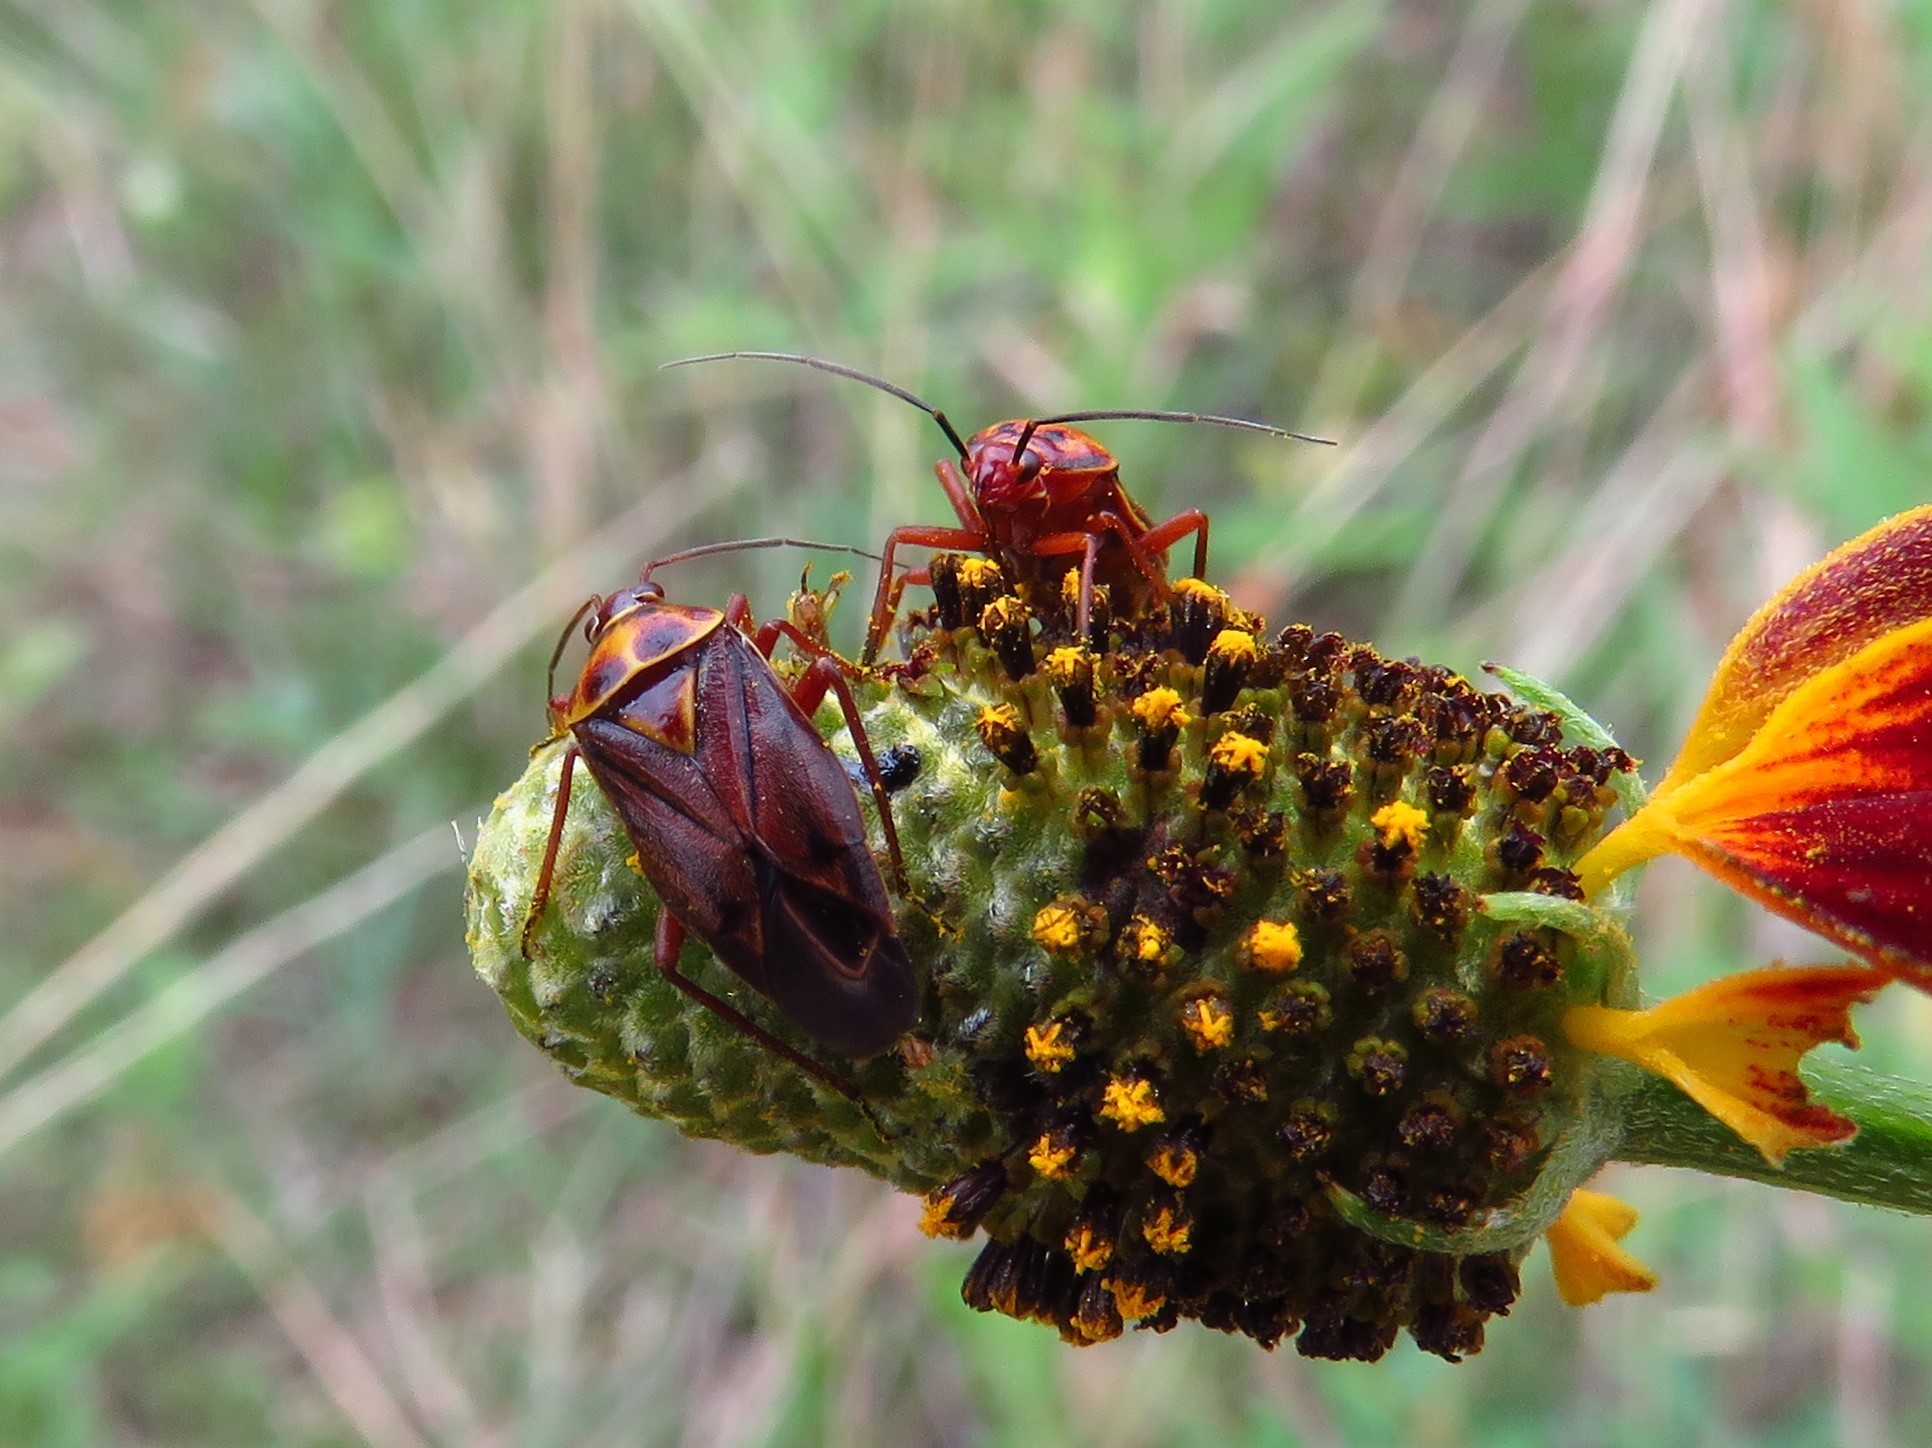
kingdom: Animalia
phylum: Arthropoda
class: Insecta
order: Hemiptera
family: Miridae
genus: Calocoris
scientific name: Calocoris barberi
